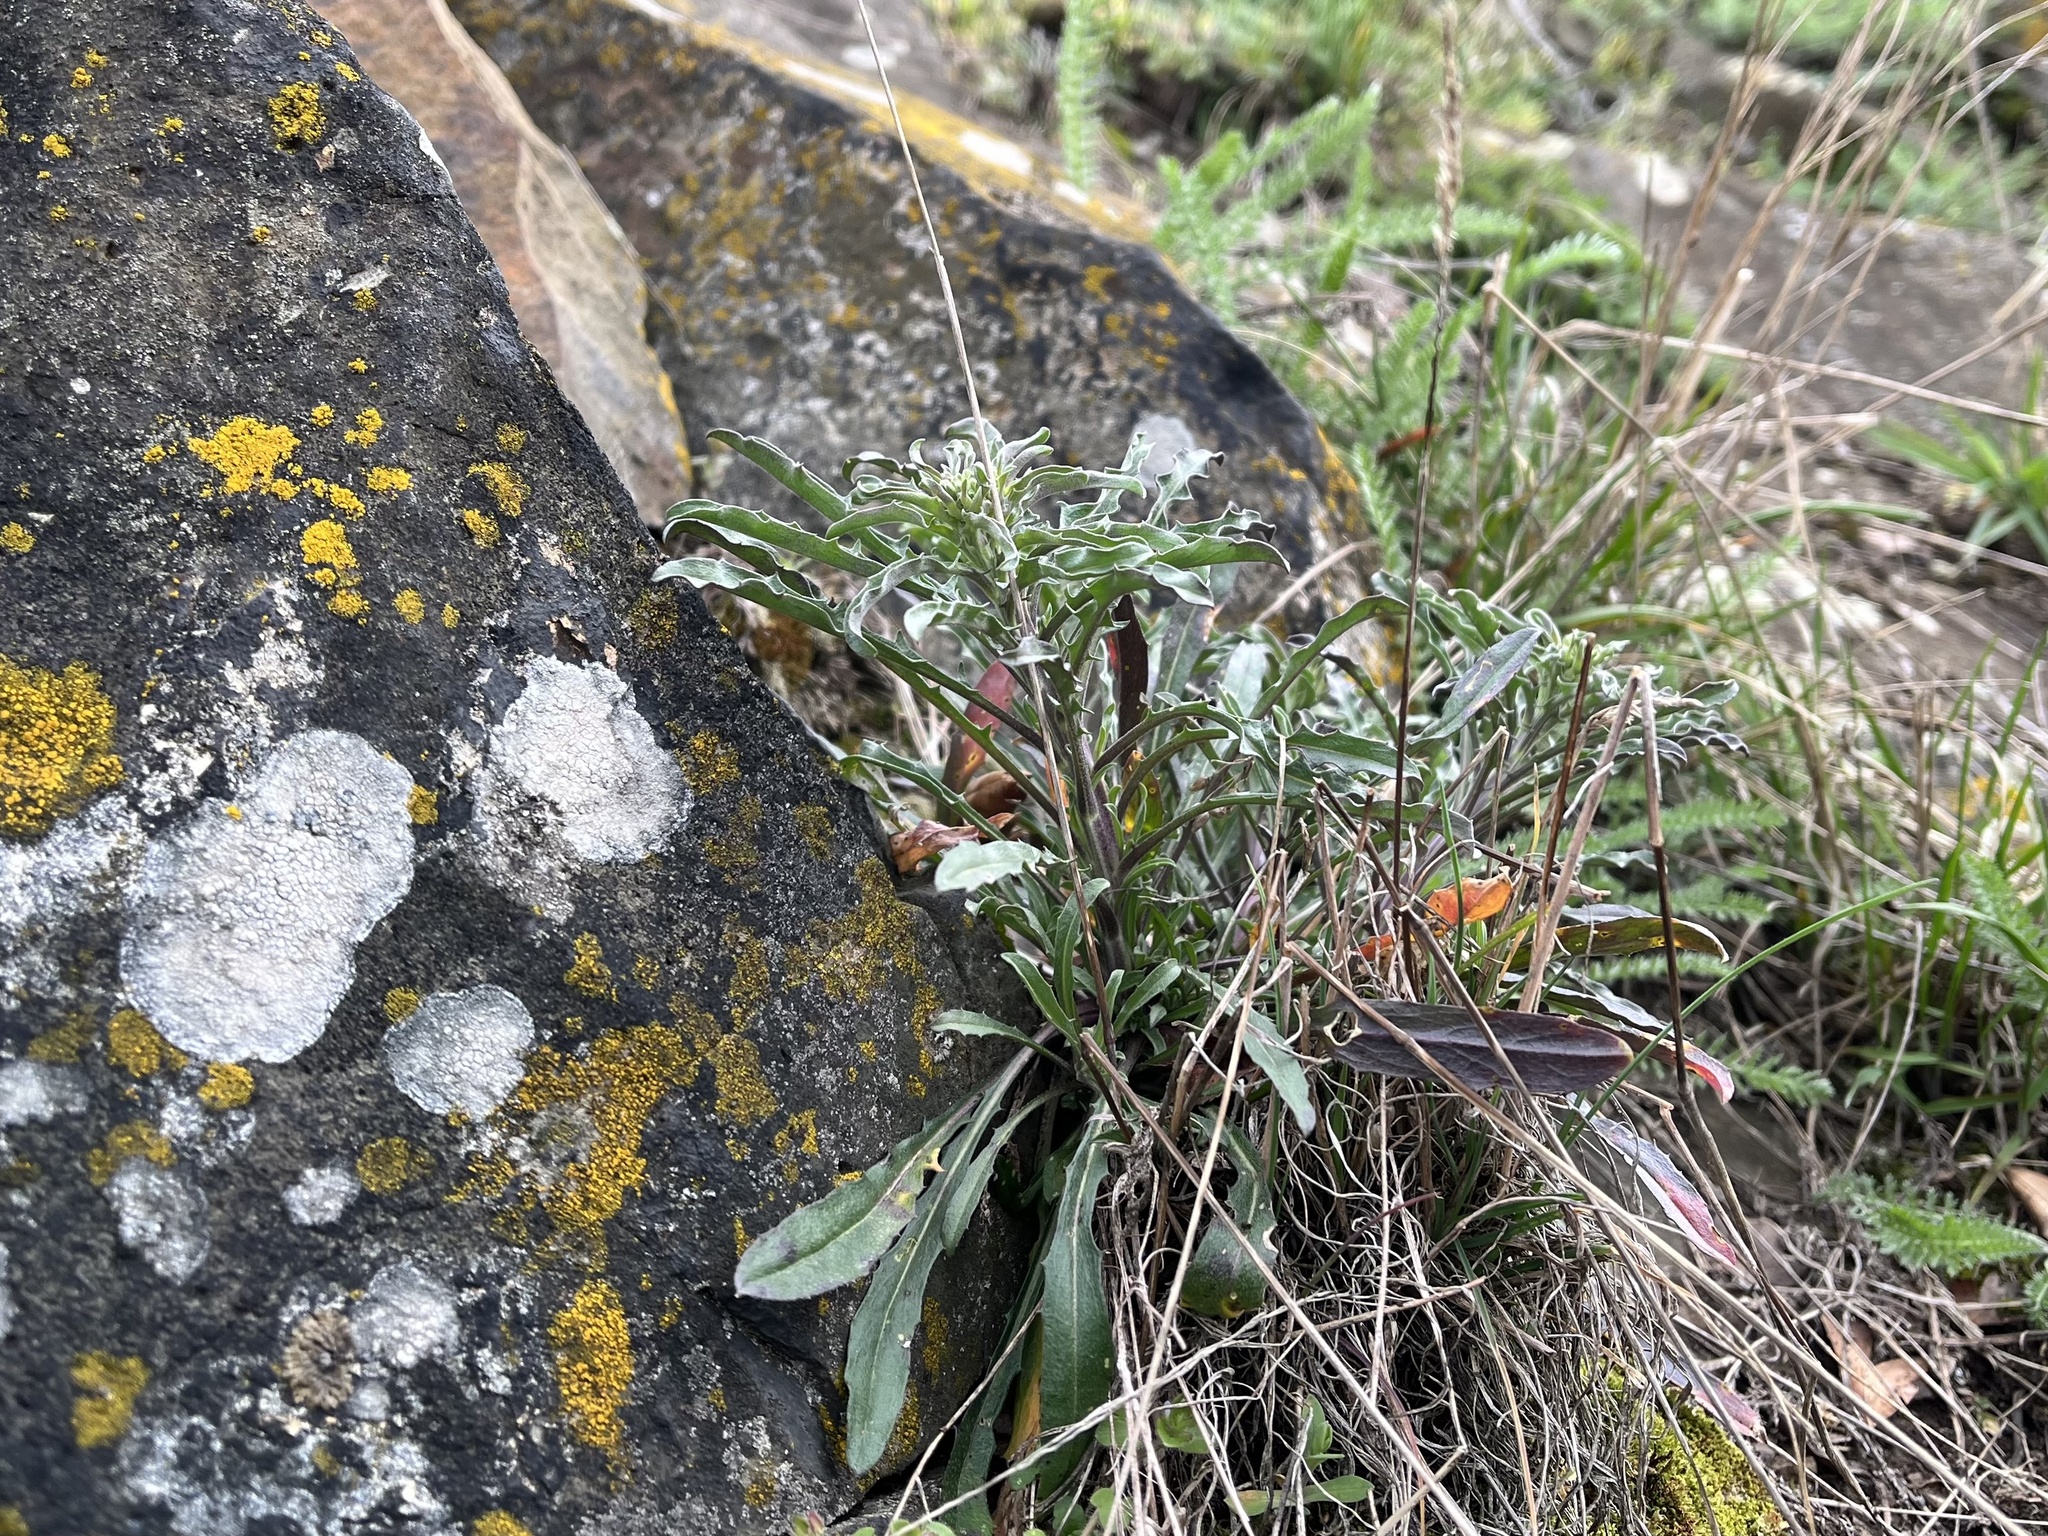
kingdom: Plantae
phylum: Tracheophyta
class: Magnoliopsida
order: Brassicales
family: Brassicaceae
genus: Erysimum
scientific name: Erysimum crepidifolium
